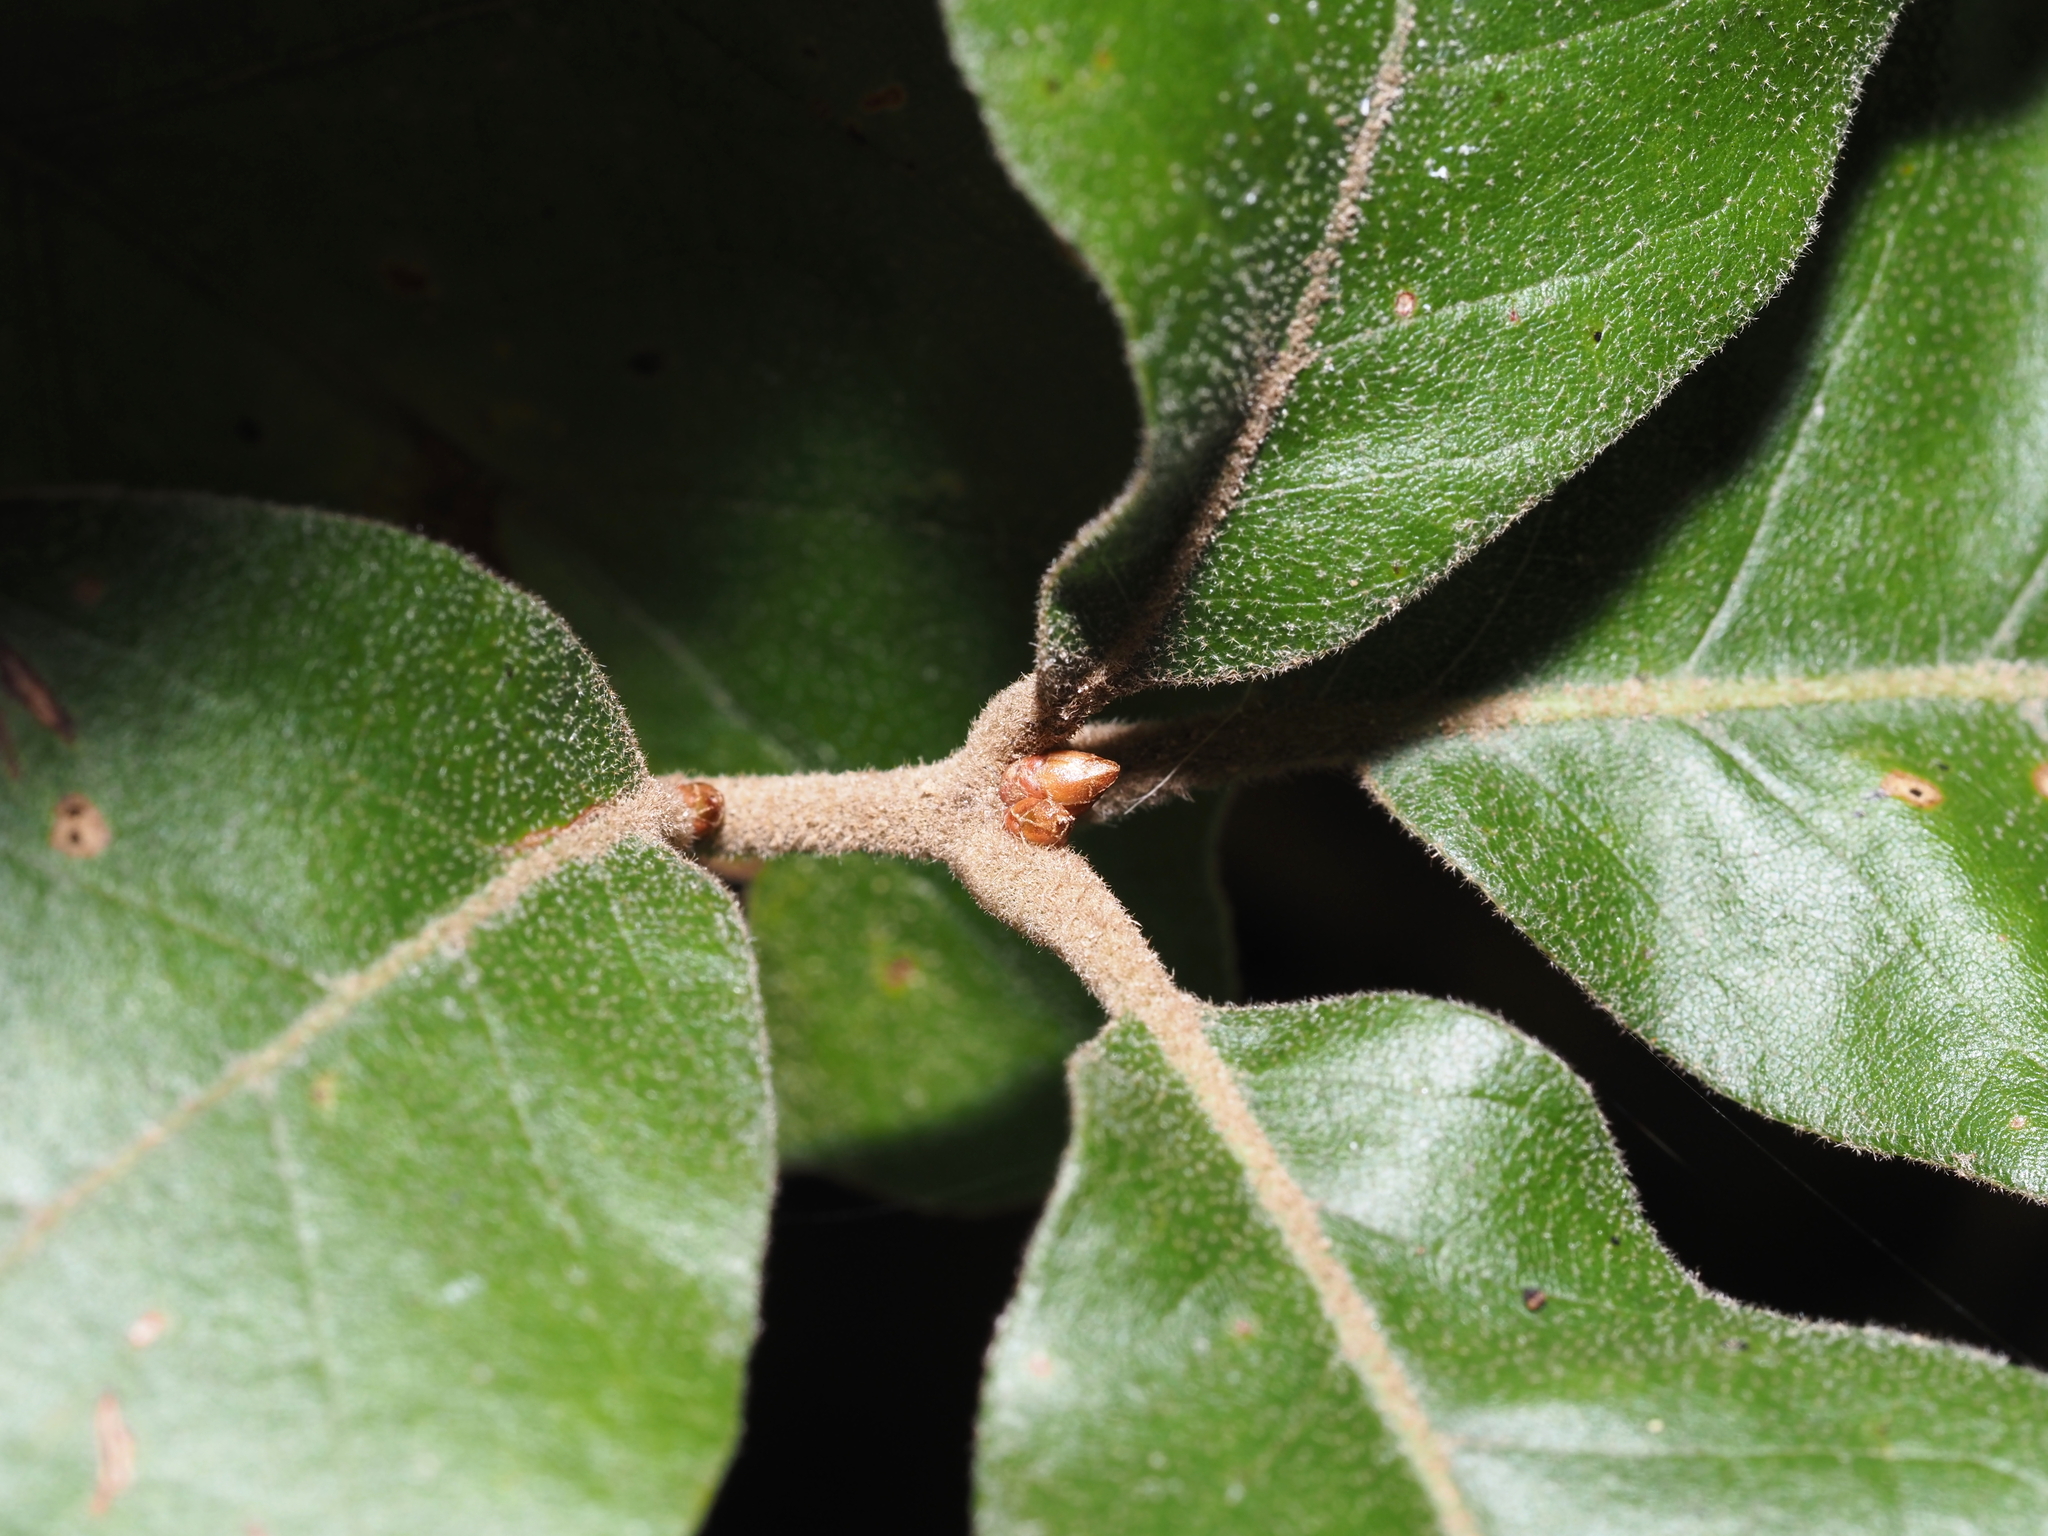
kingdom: Plantae
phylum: Tracheophyta
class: Magnoliopsida
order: Fagales
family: Fagaceae
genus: Quercus
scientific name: Quercus falcata
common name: Southern red oak
